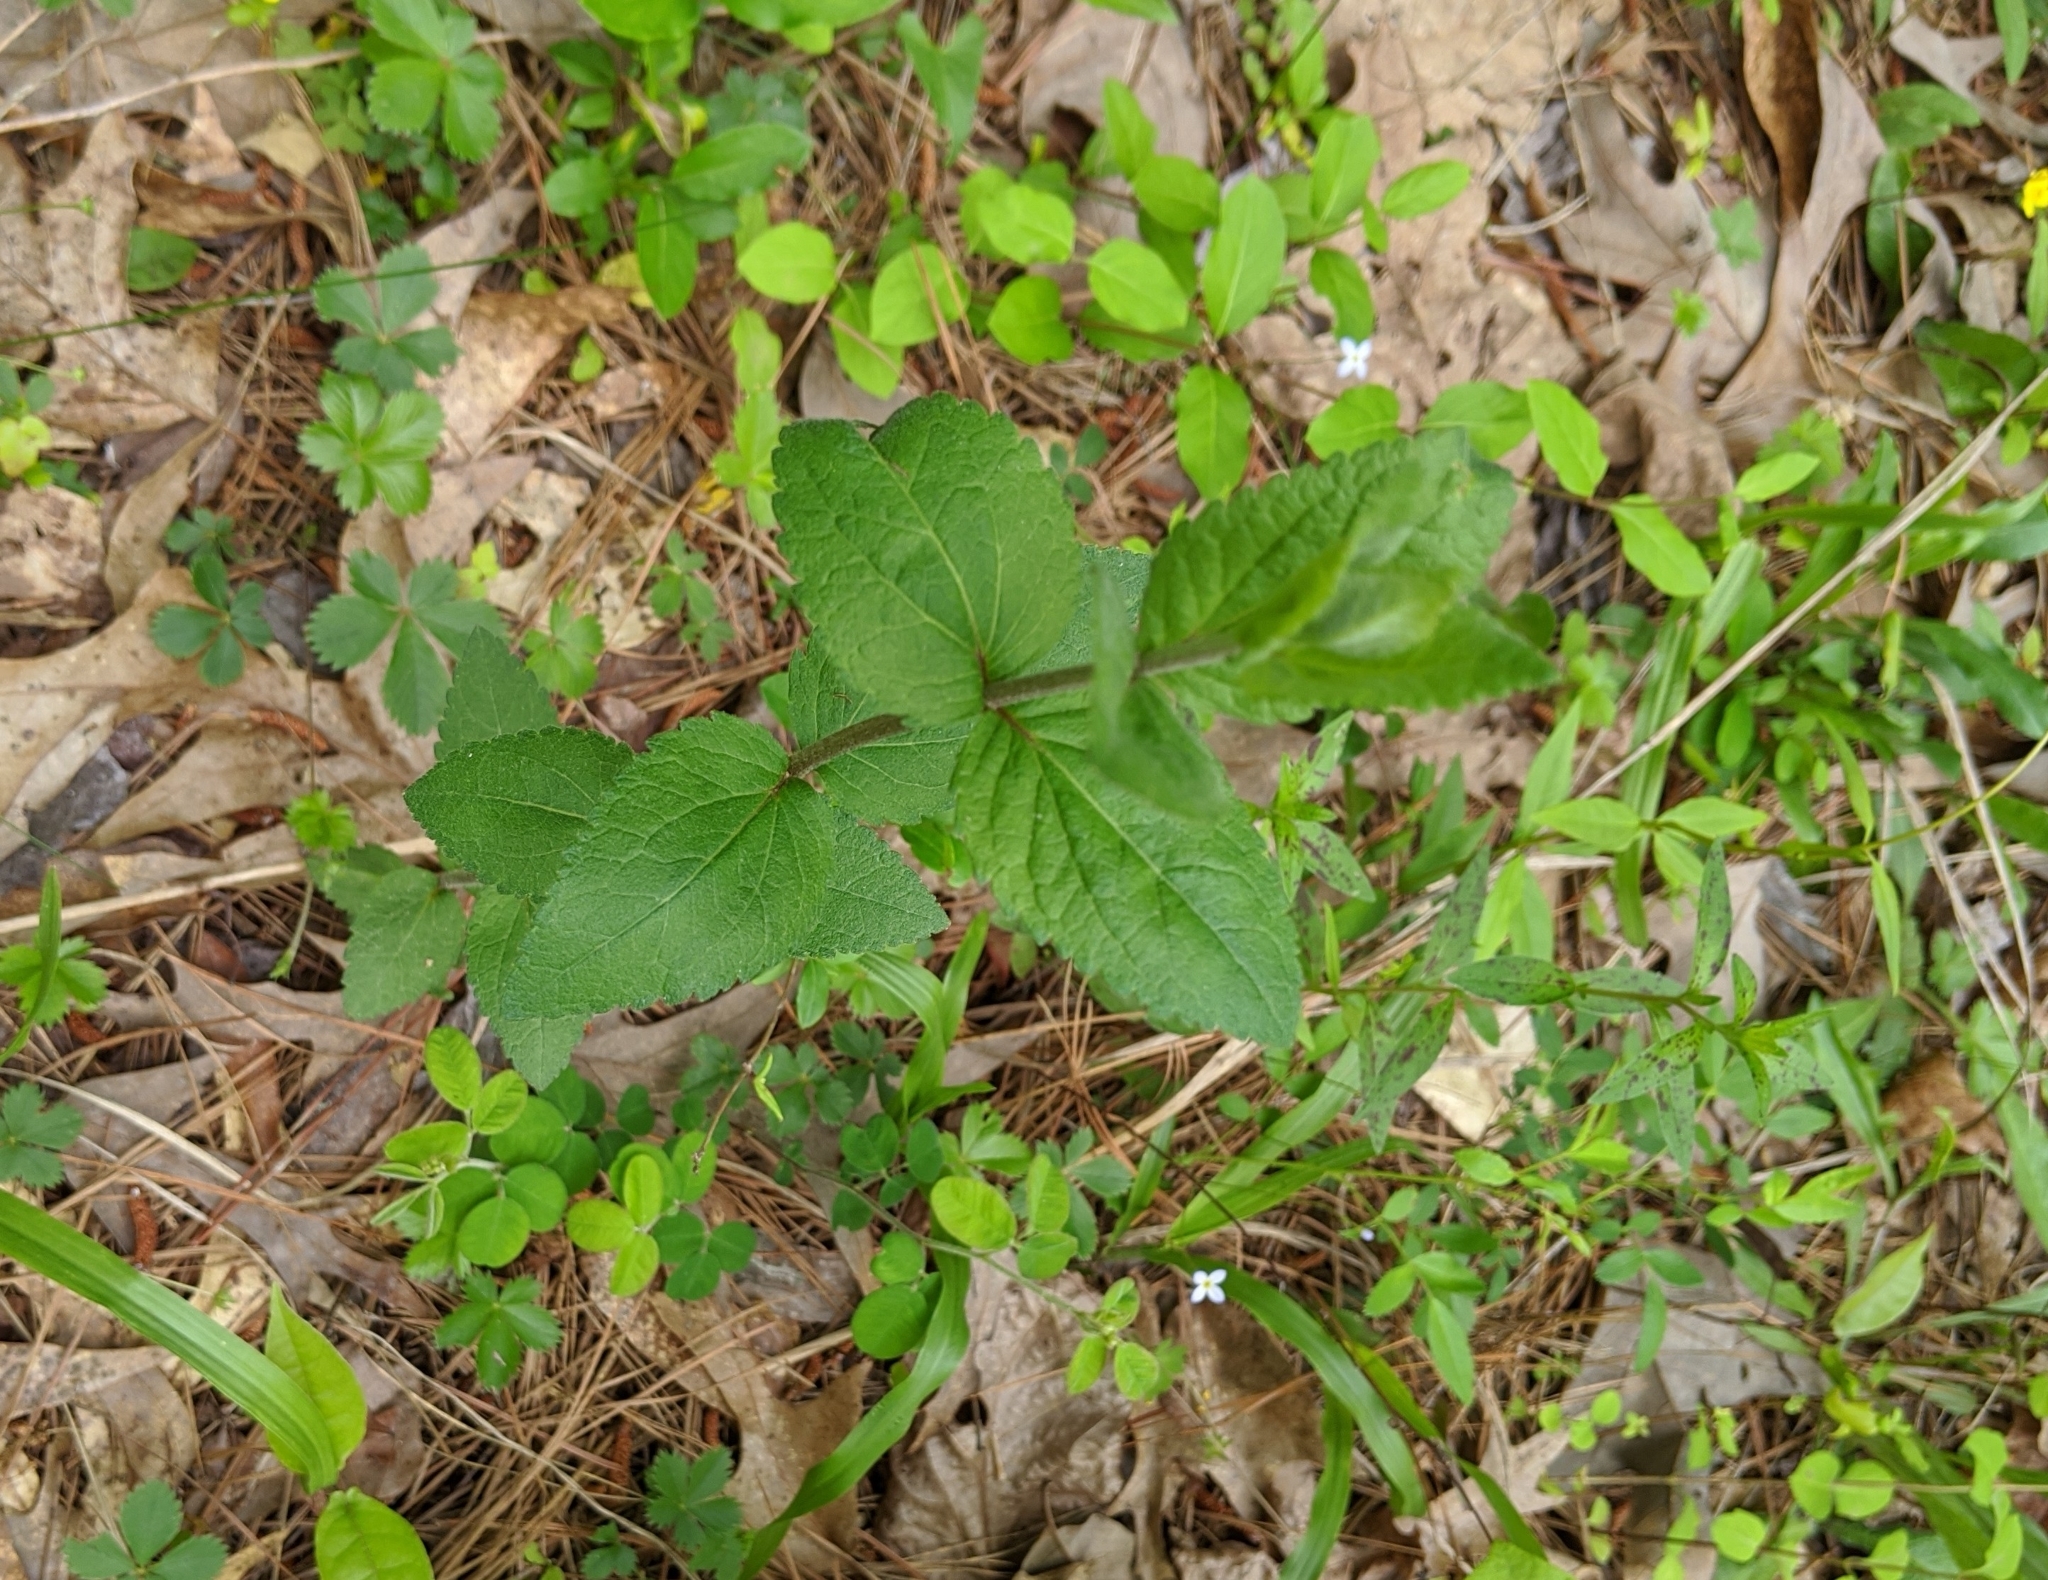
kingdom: Plantae
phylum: Tracheophyta
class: Magnoliopsida
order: Asterales
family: Asteraceae
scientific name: Asteraceae
